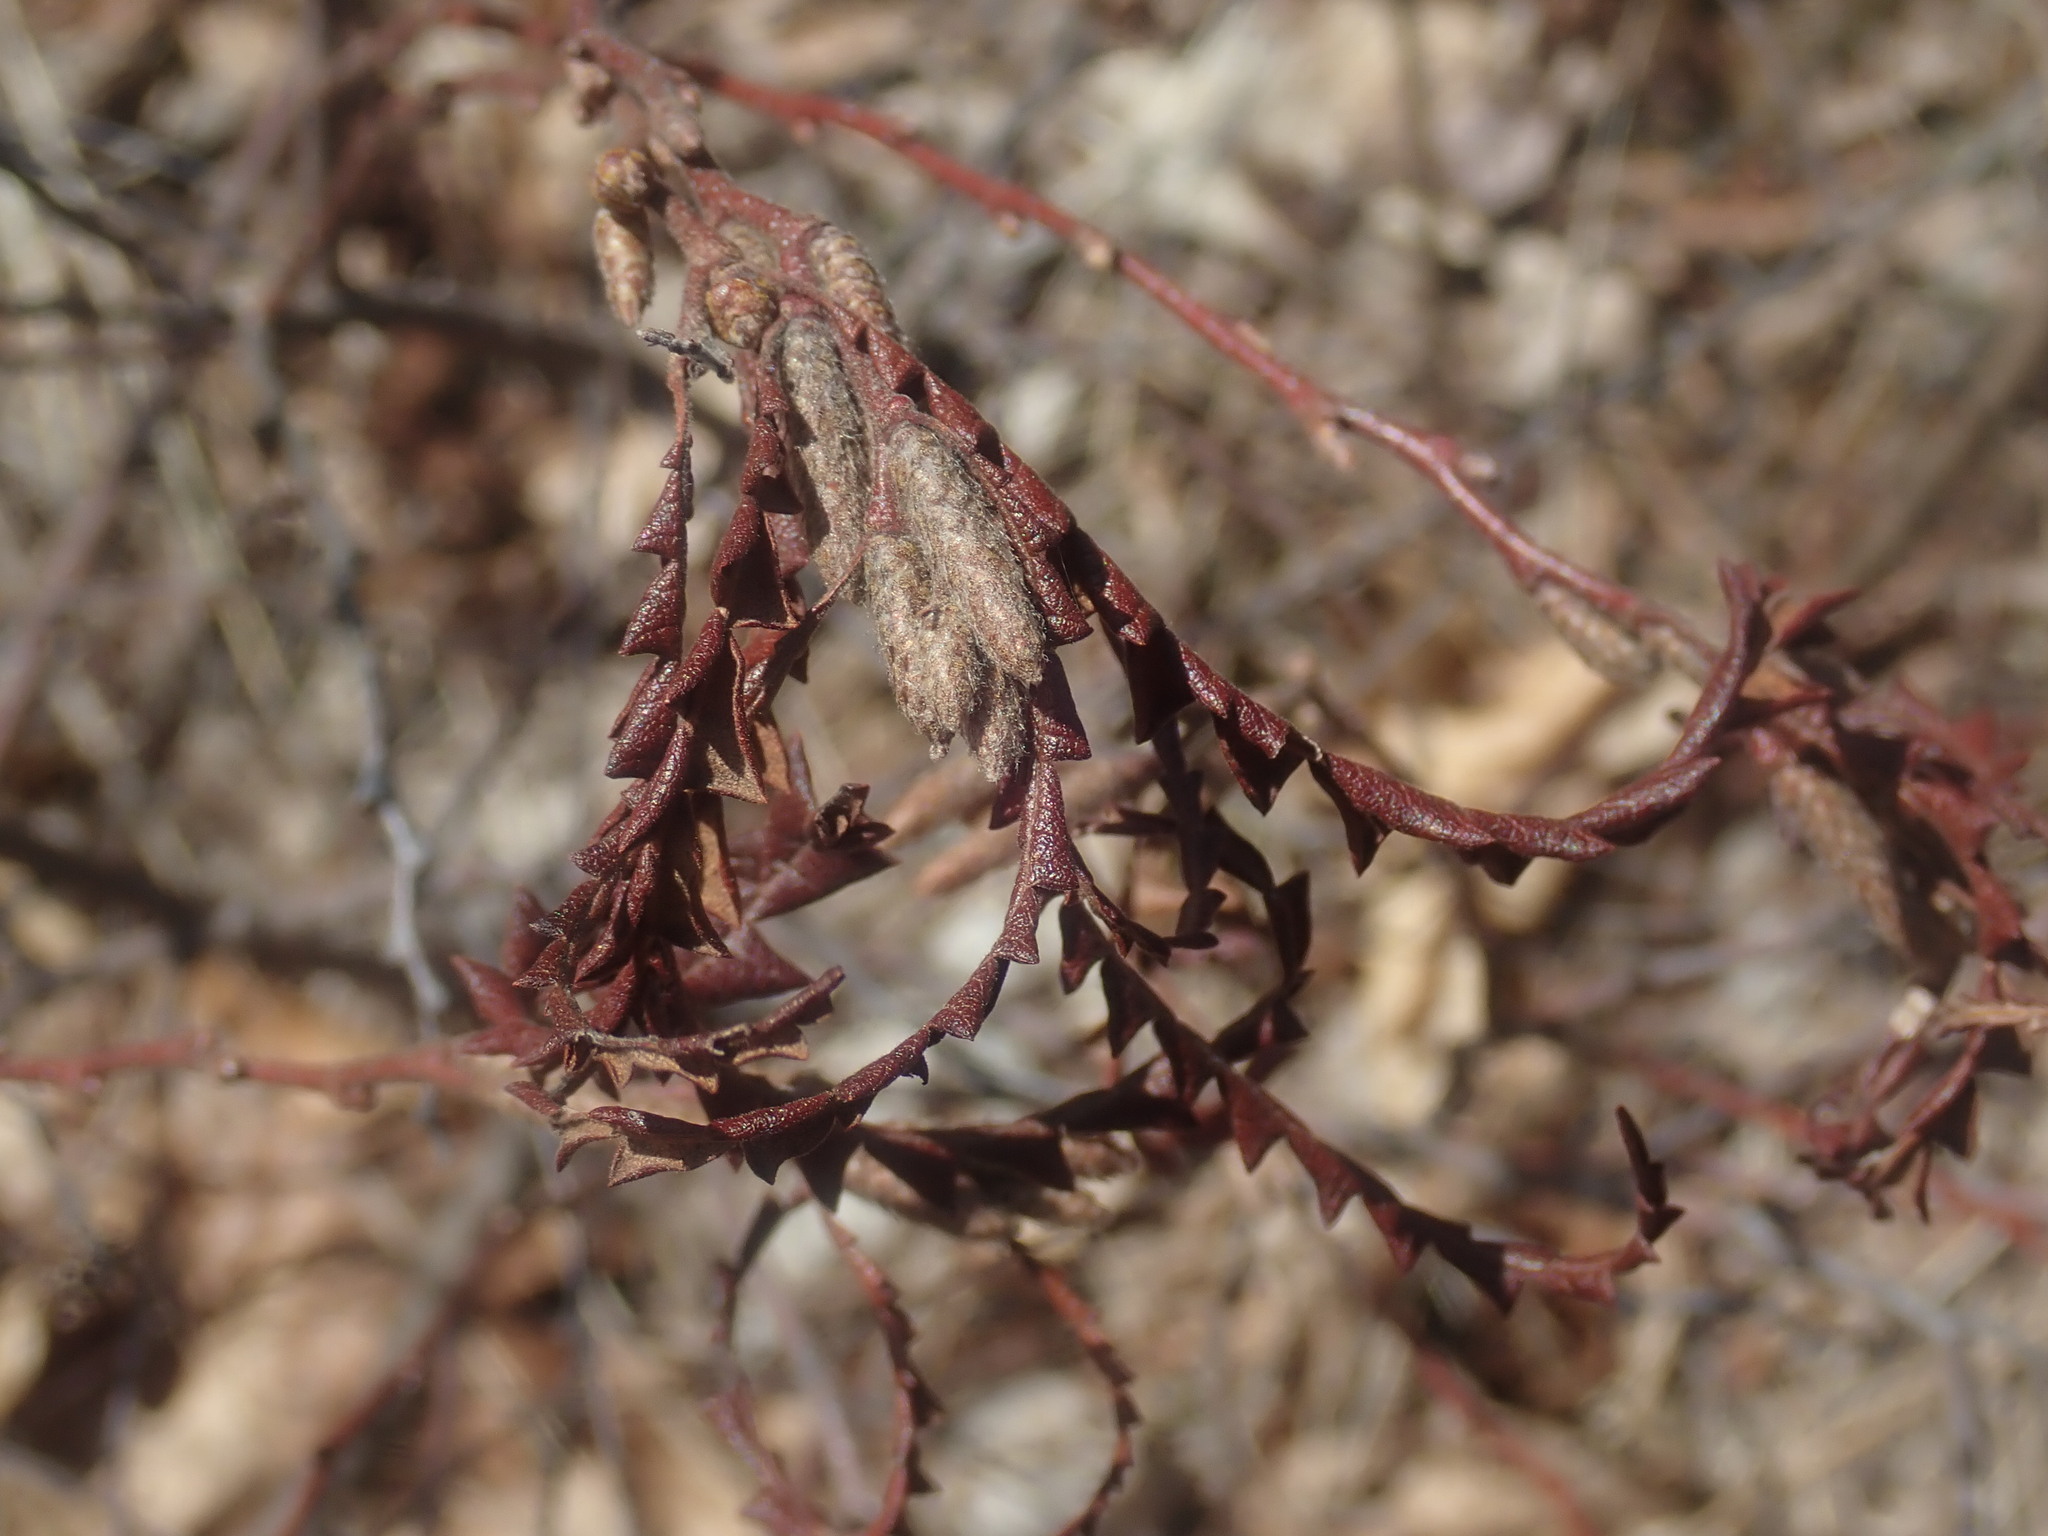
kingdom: Plantae
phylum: Tracheophyta
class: Magnoliopsida
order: Fagales
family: Myricaceae
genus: Comptonia
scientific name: Comptonia peregrina
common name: Sweet-fern
